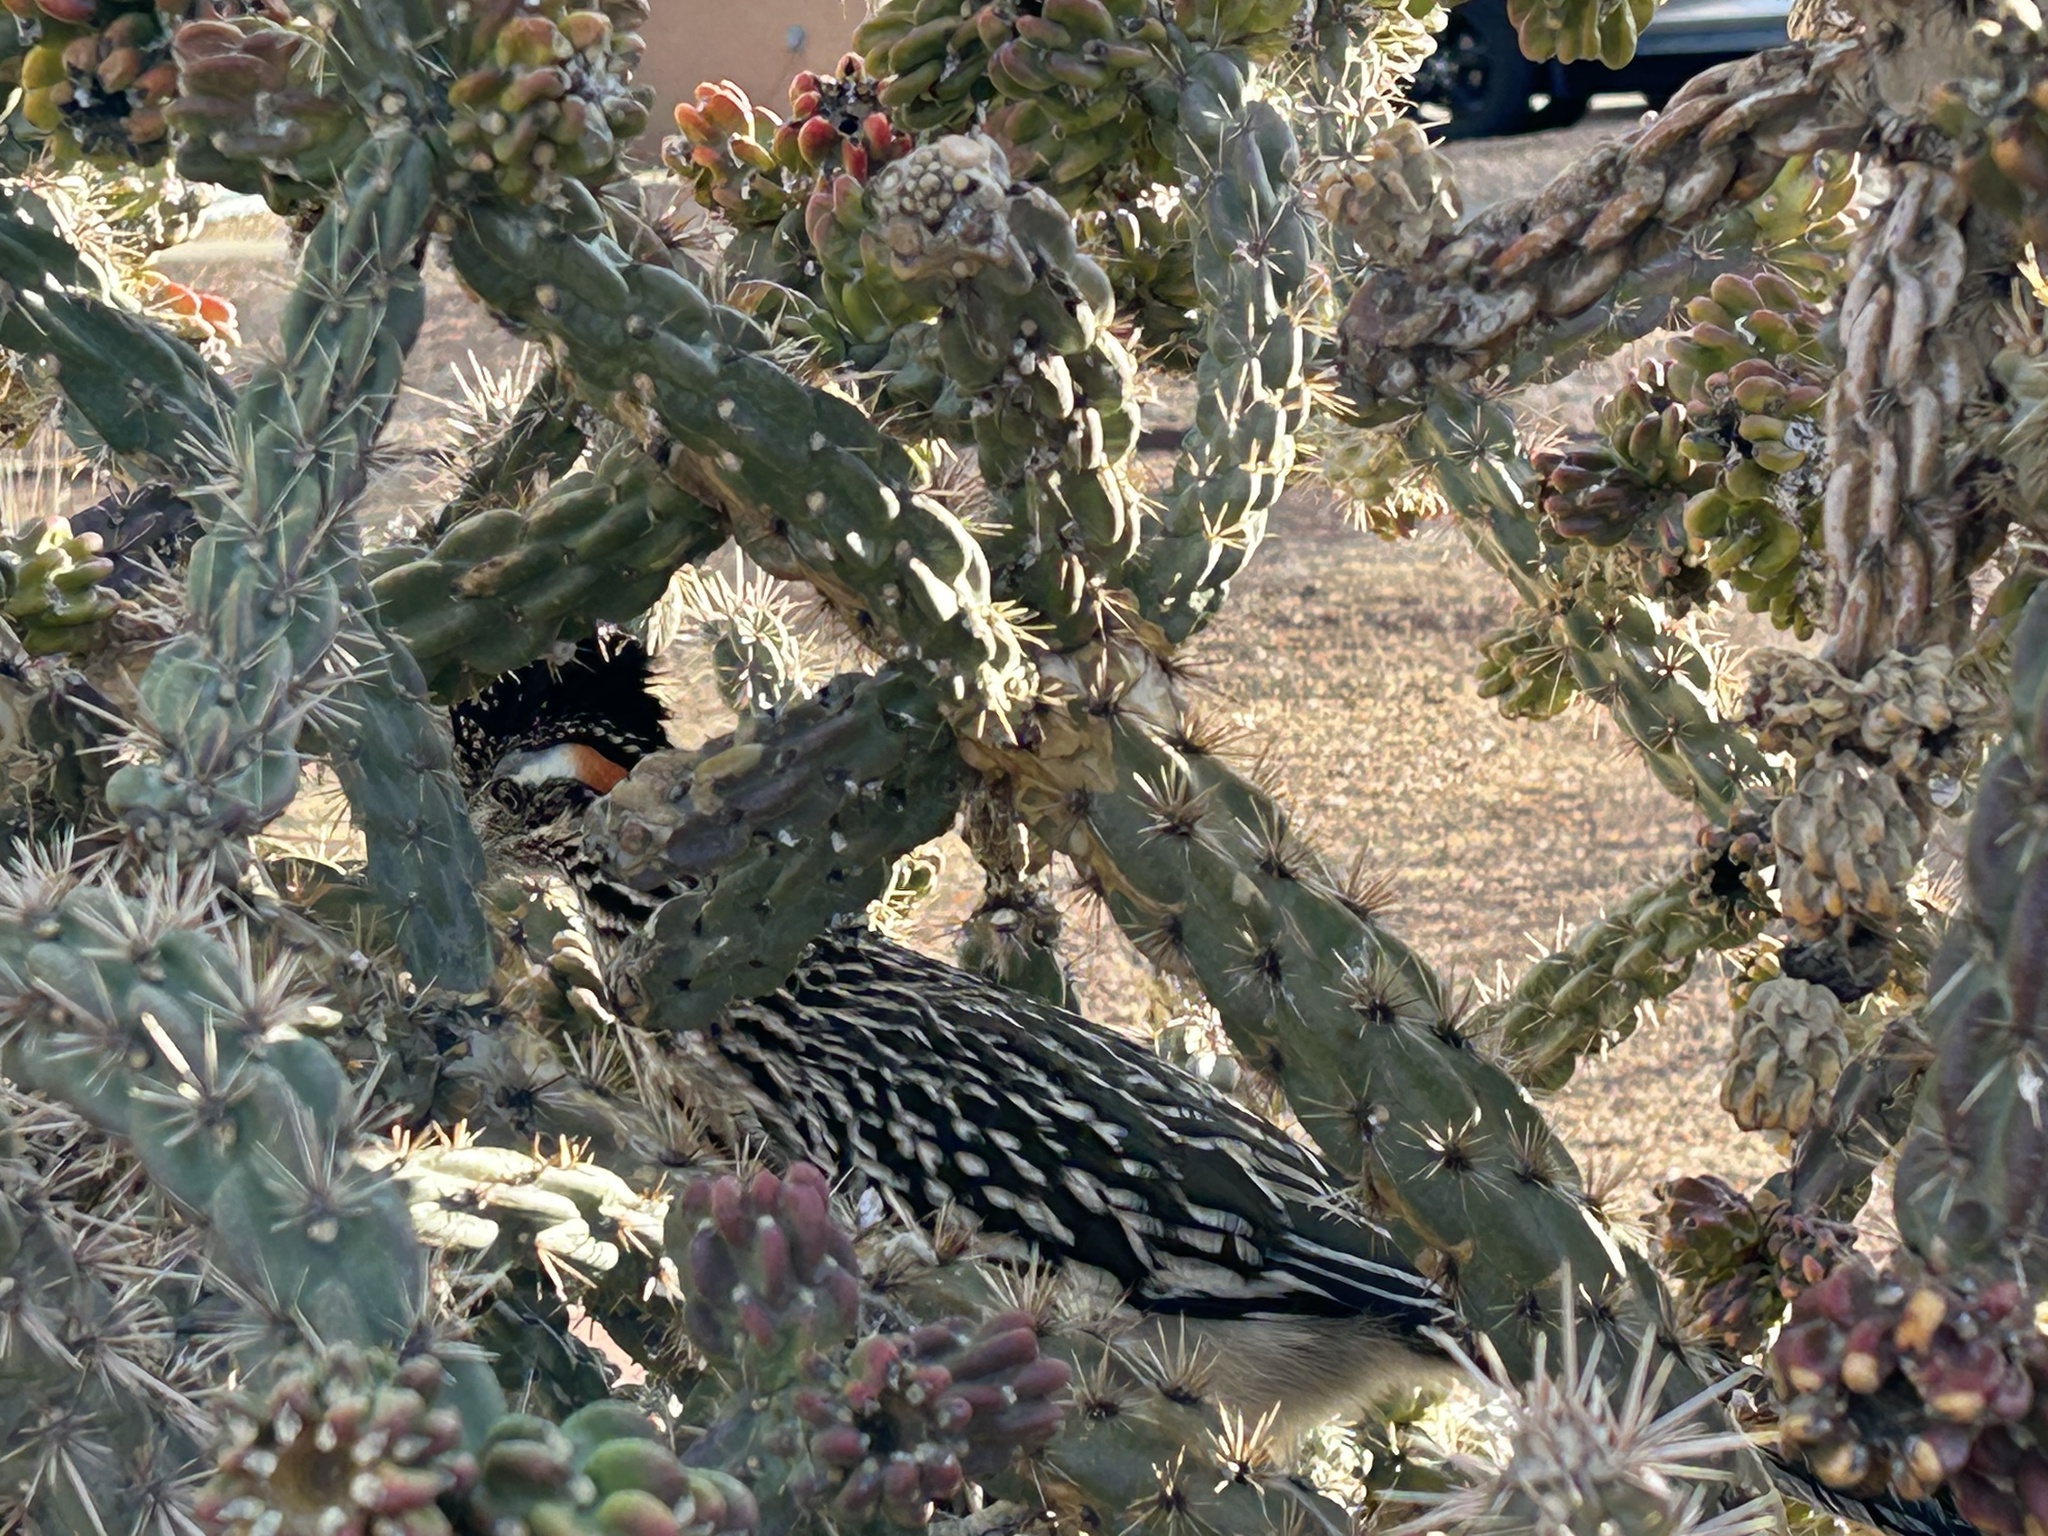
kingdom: Animalia
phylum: Chordata
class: Aves
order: Cuculiformes
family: Cuculidae
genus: Geococcyx
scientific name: Geococcyx californianus
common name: Greater roadrunner
